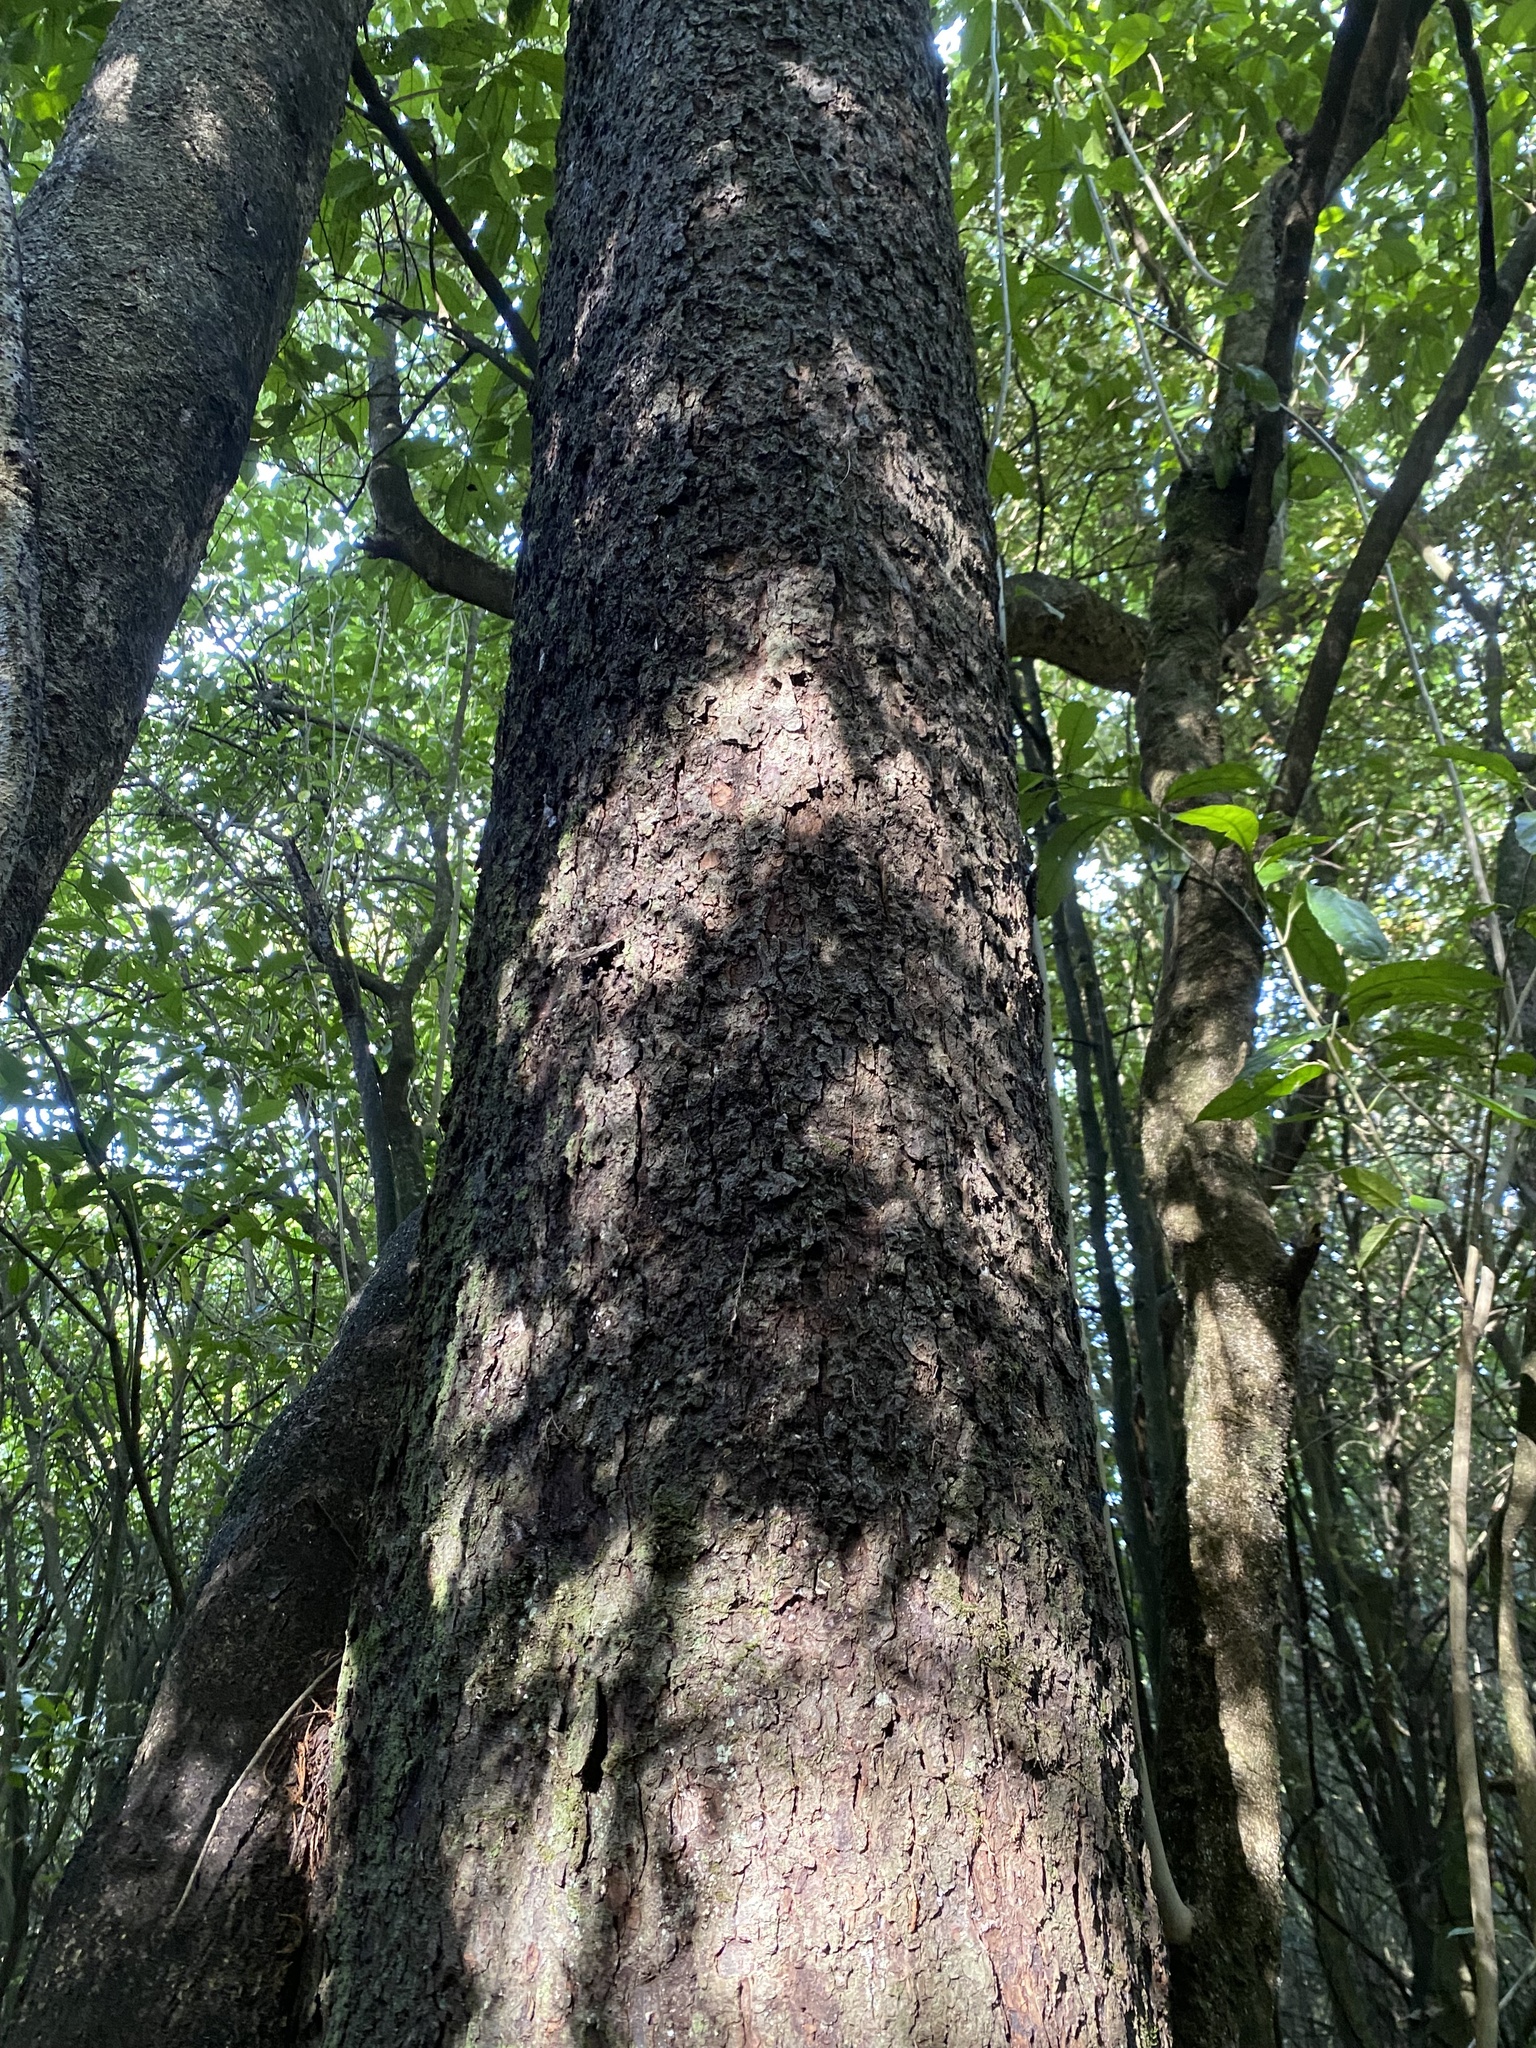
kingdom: Plantae
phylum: Tracheophyta
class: Pinopsida
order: Pinales
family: Podocarpaceae
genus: Dacrycarpus
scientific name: Dacrycarpus dacrydioides
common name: White pine
